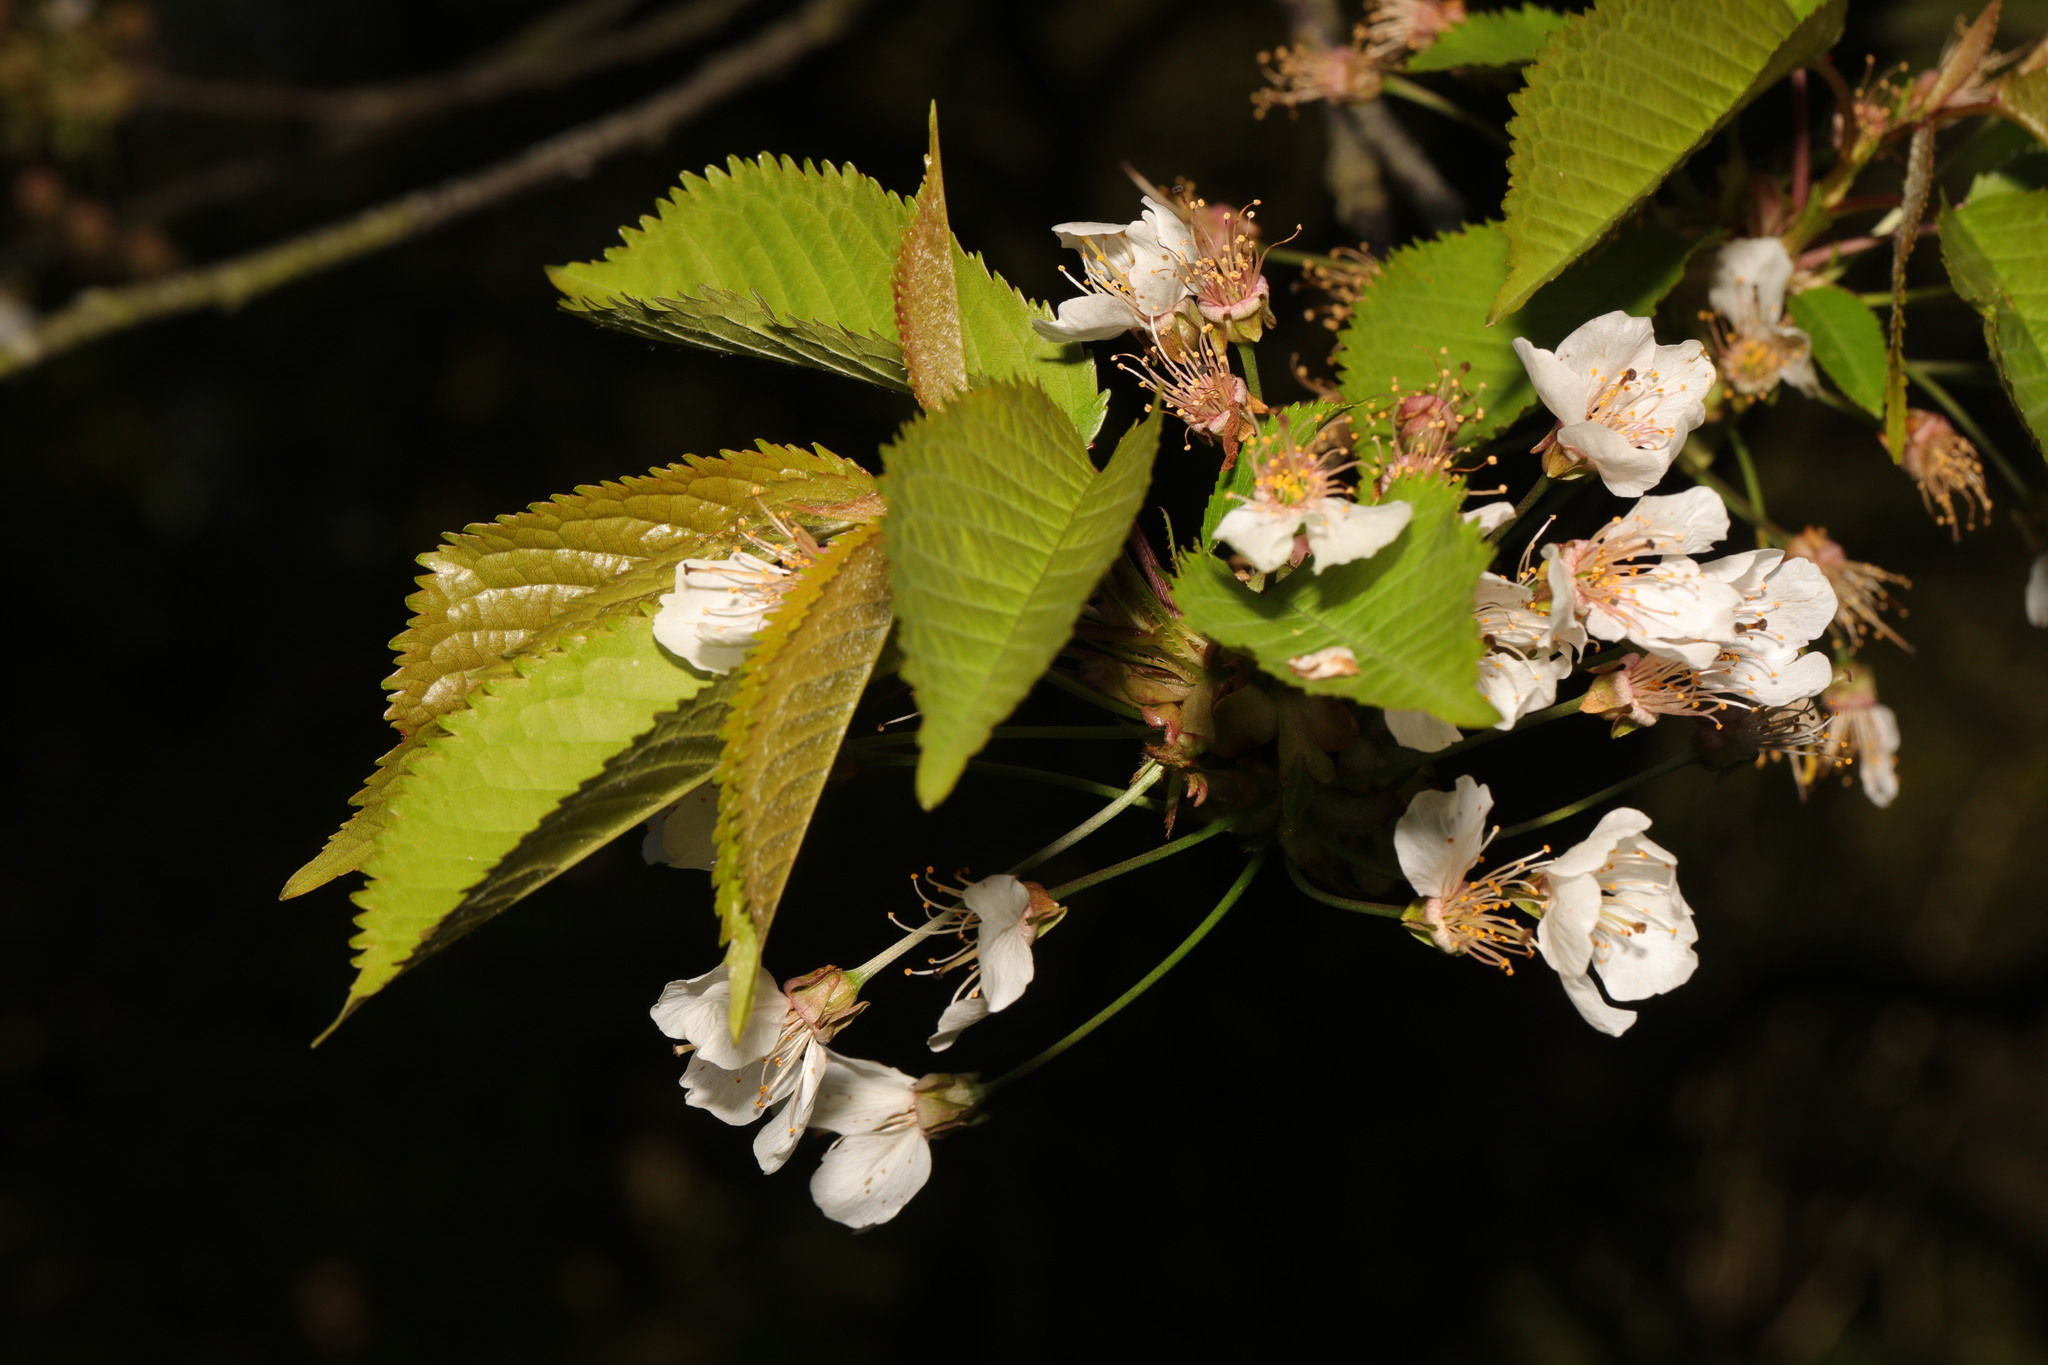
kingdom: Plantae
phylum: Tracheophyta
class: Magnoliopsida
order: Rosales
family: Rosaceae
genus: Prunus
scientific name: Prunus avium
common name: Sweet cherry
